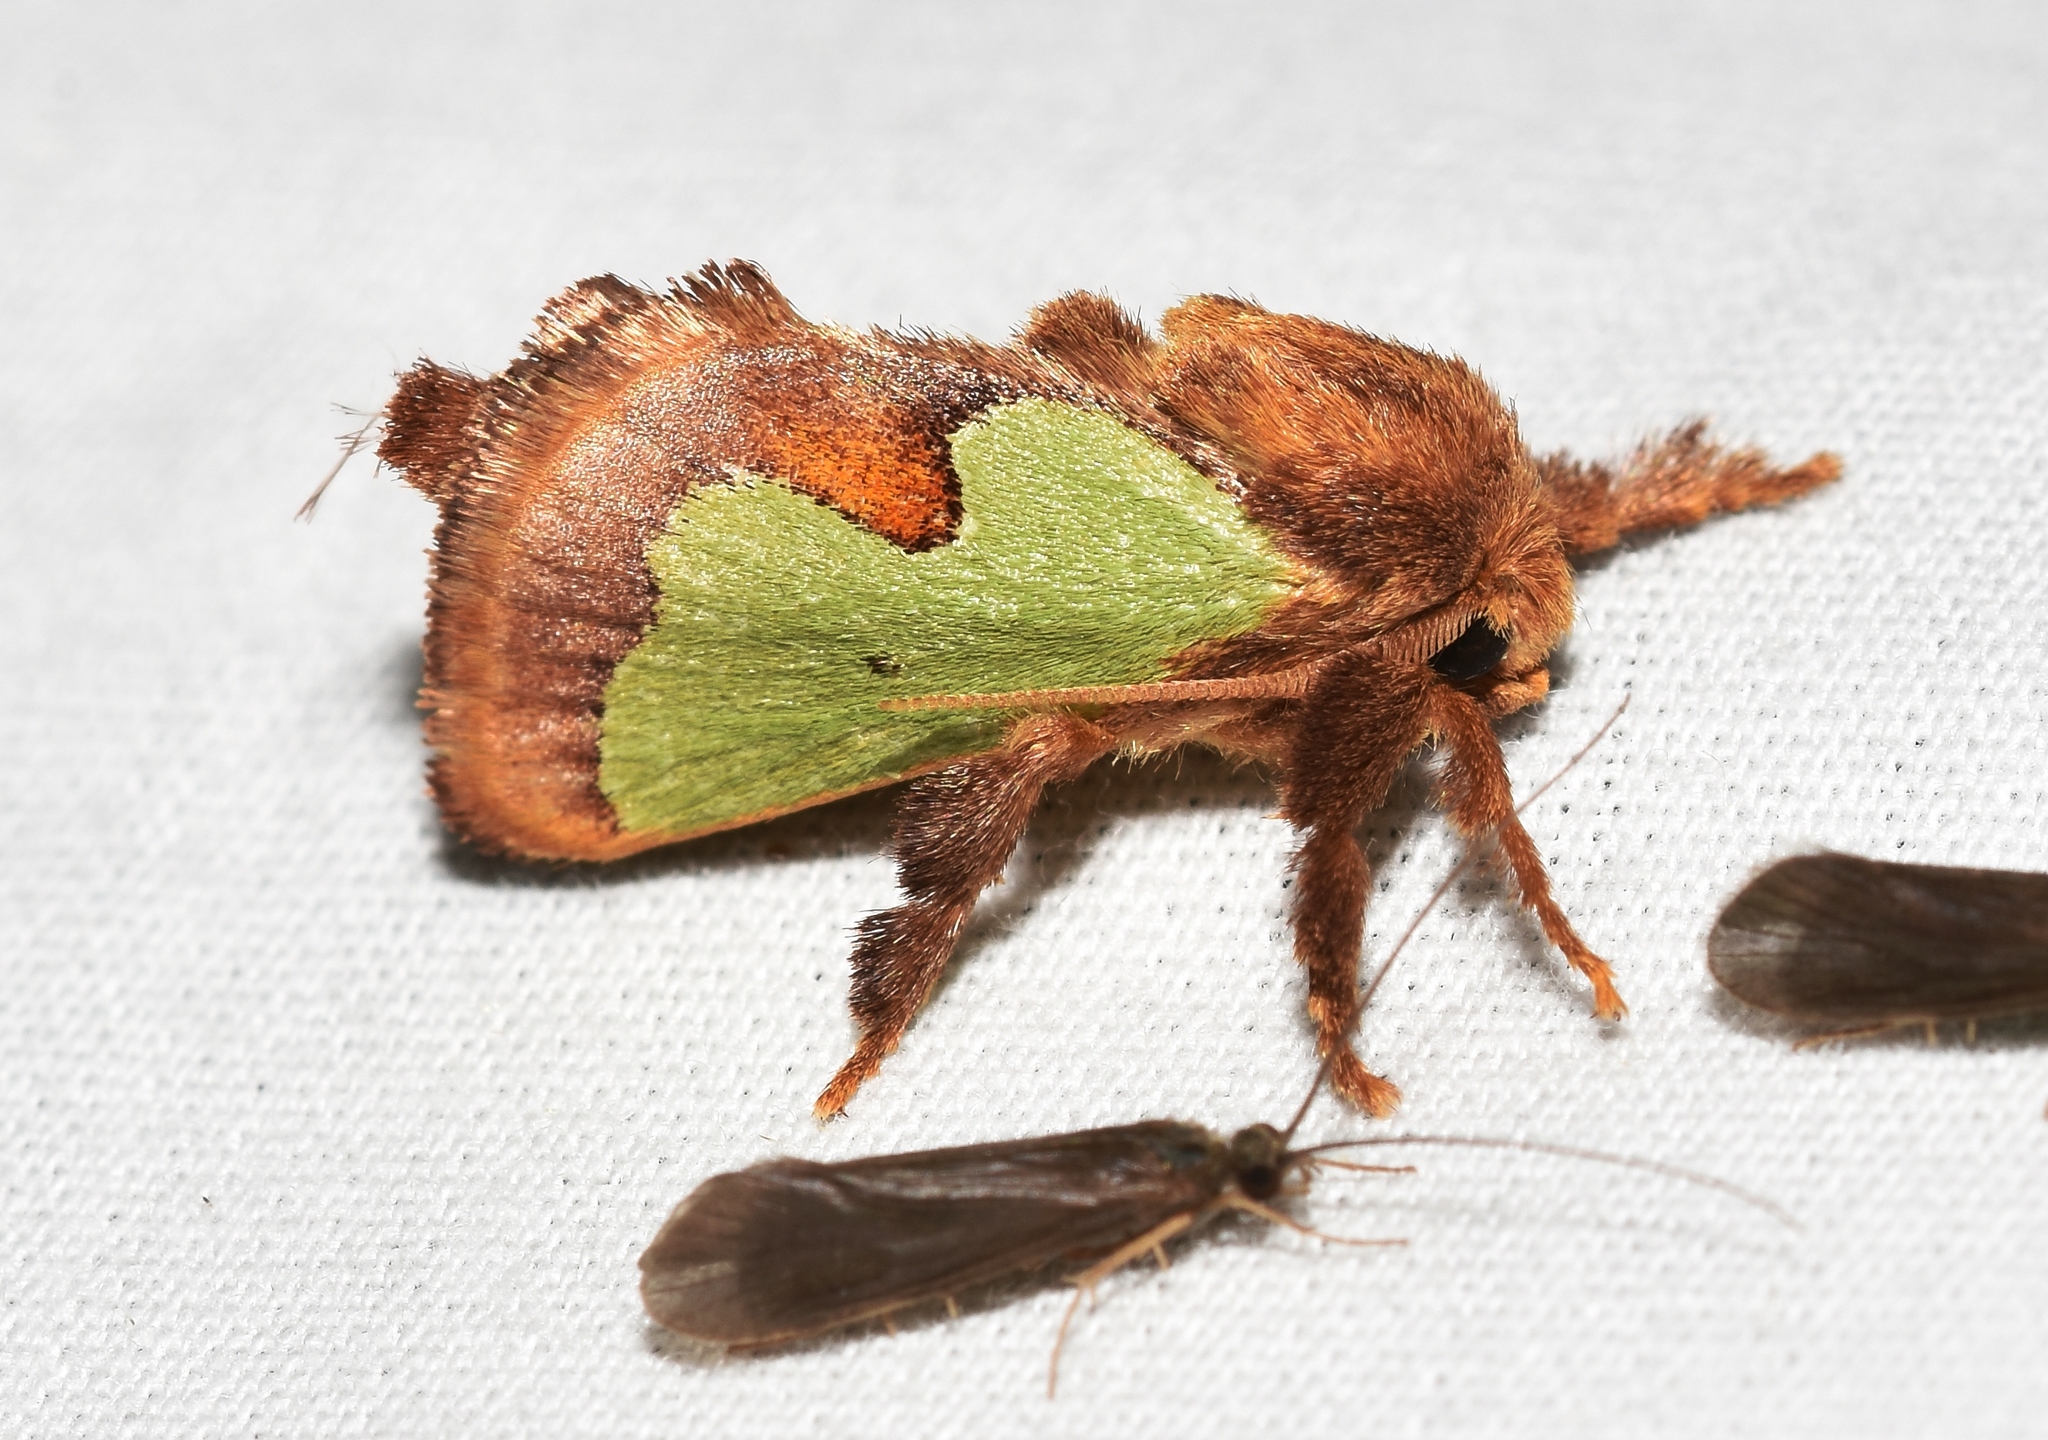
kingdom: Animalia
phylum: Arthropoda
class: Insecta
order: Lepidoptera
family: Limacodidae
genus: Euclea
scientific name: Euclea delphinii
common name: Spiny oak-slug moth
